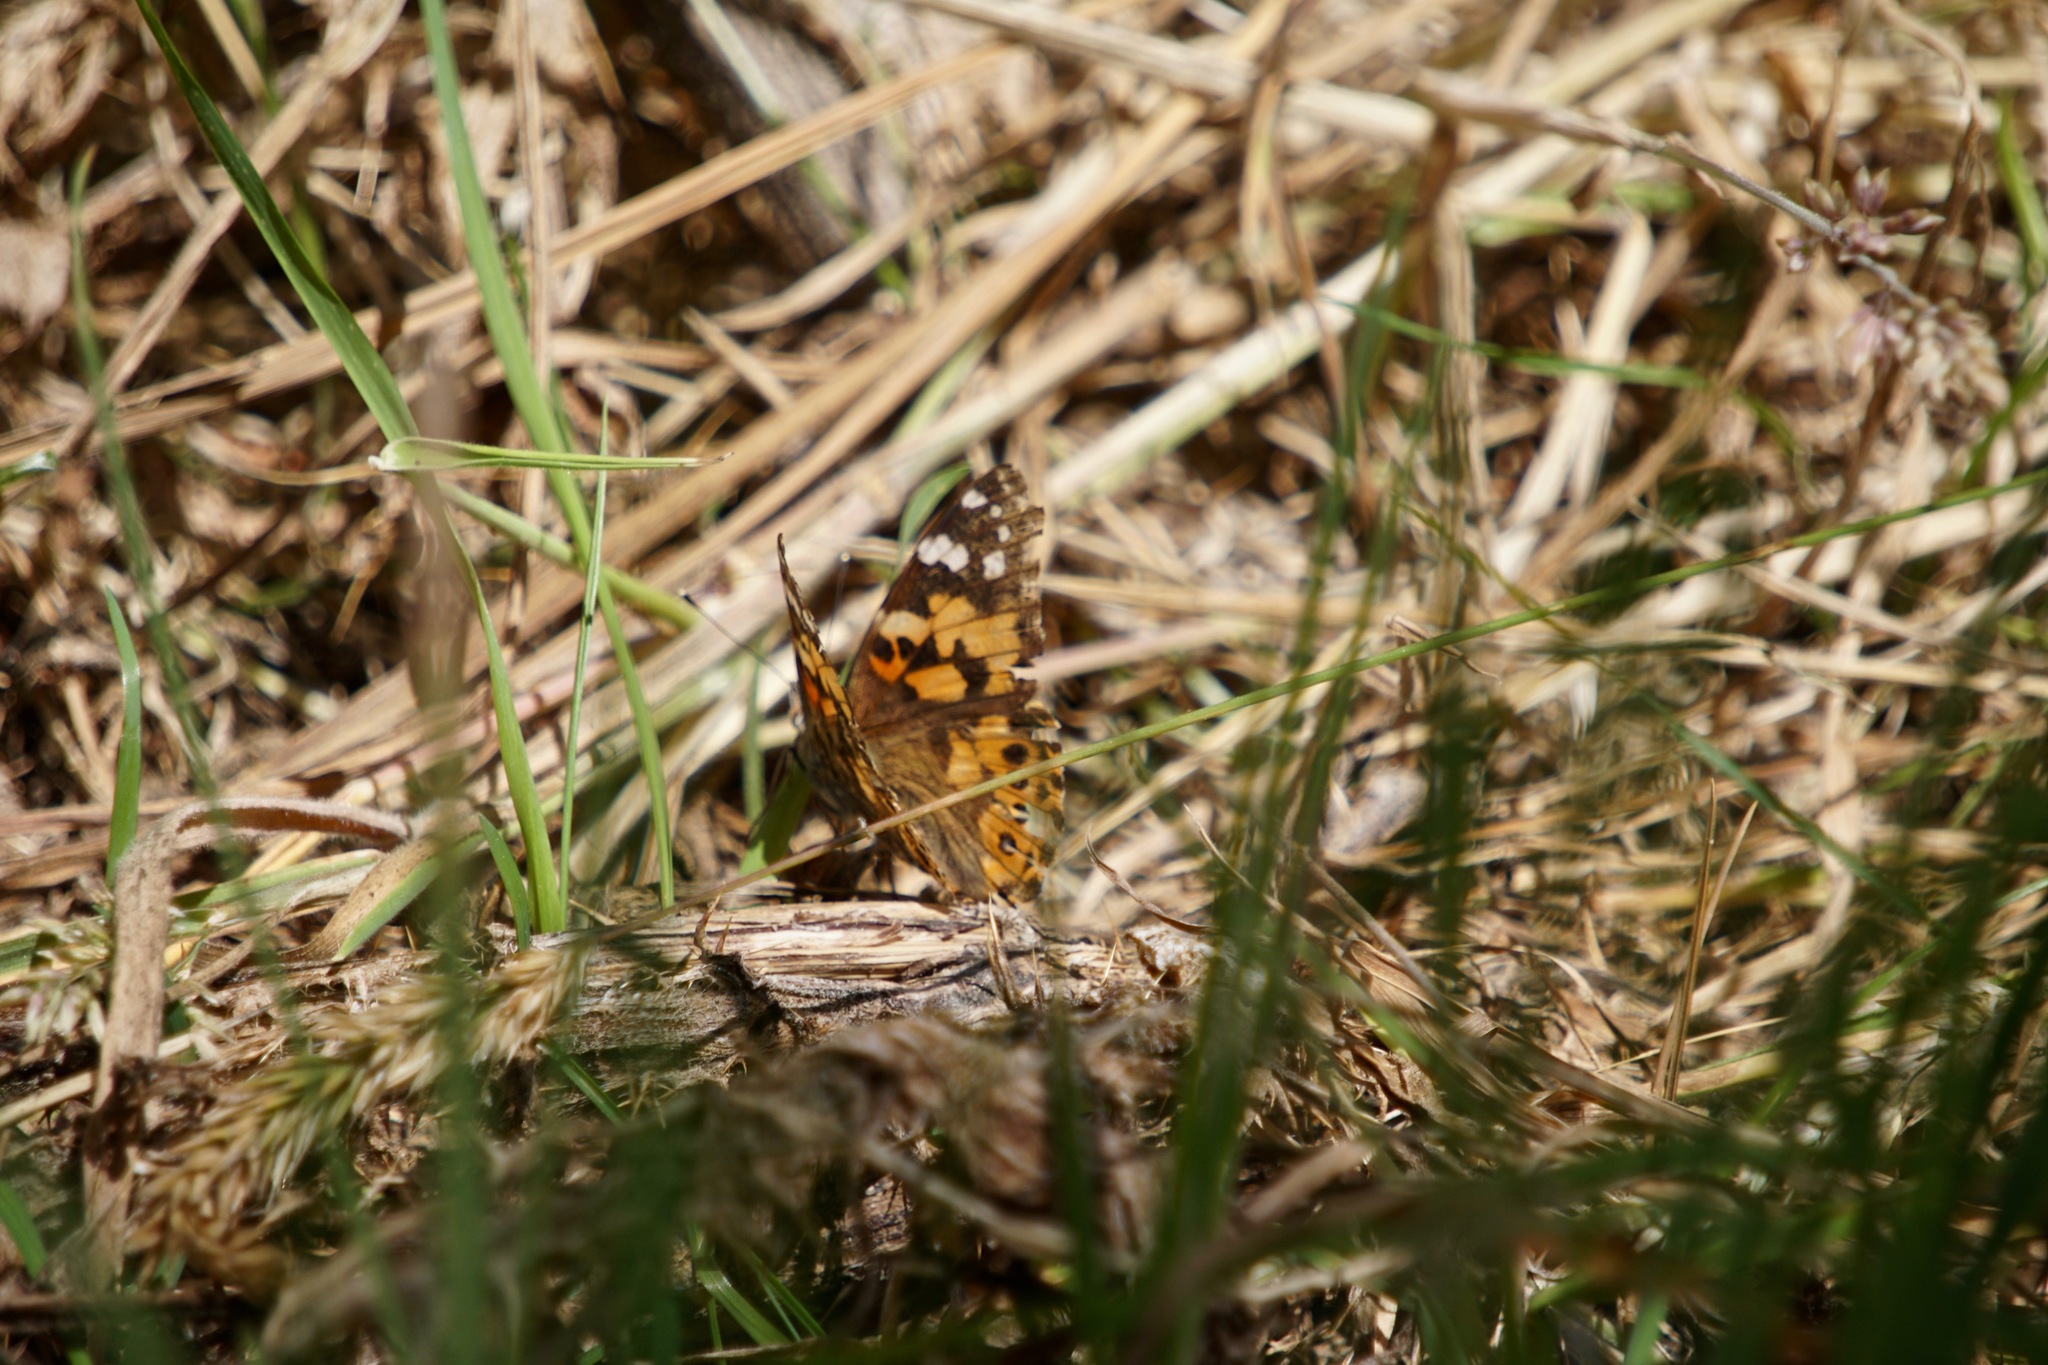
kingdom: Animalia
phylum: Arthropoda
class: Insecta
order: Lepidoptera
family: Nymphalidae
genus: Vanessa
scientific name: Vanessa cardui
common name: Painted lady
